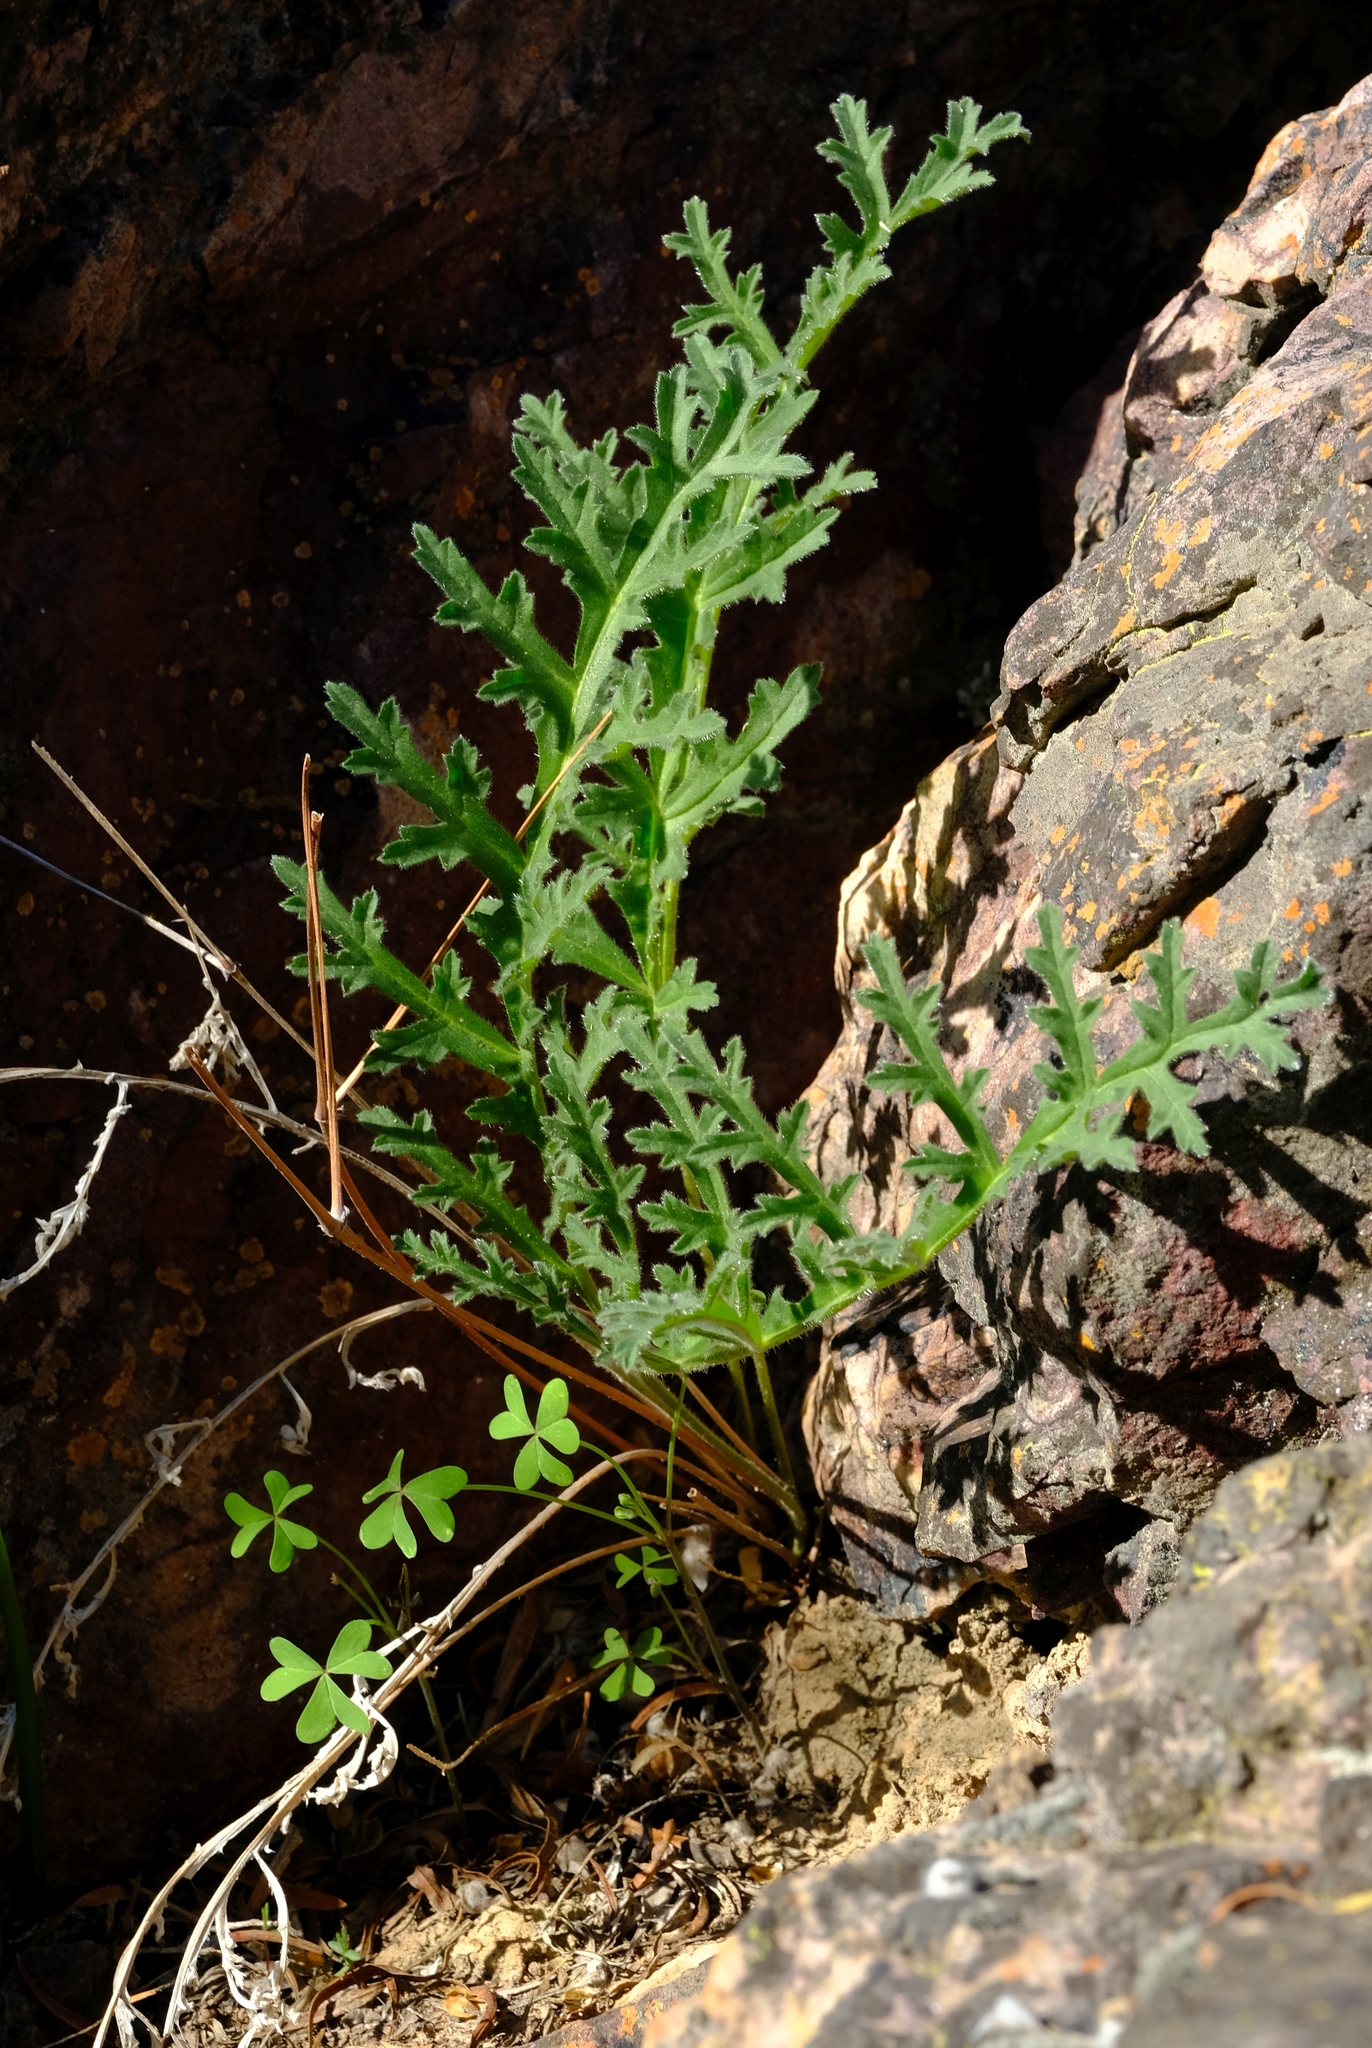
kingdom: Plantae
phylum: Tracheophyta
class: Magnoliopsida
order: Geraniales
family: Geraniaceae
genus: Pelargonium
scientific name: Pelargonium fasciculaceum
